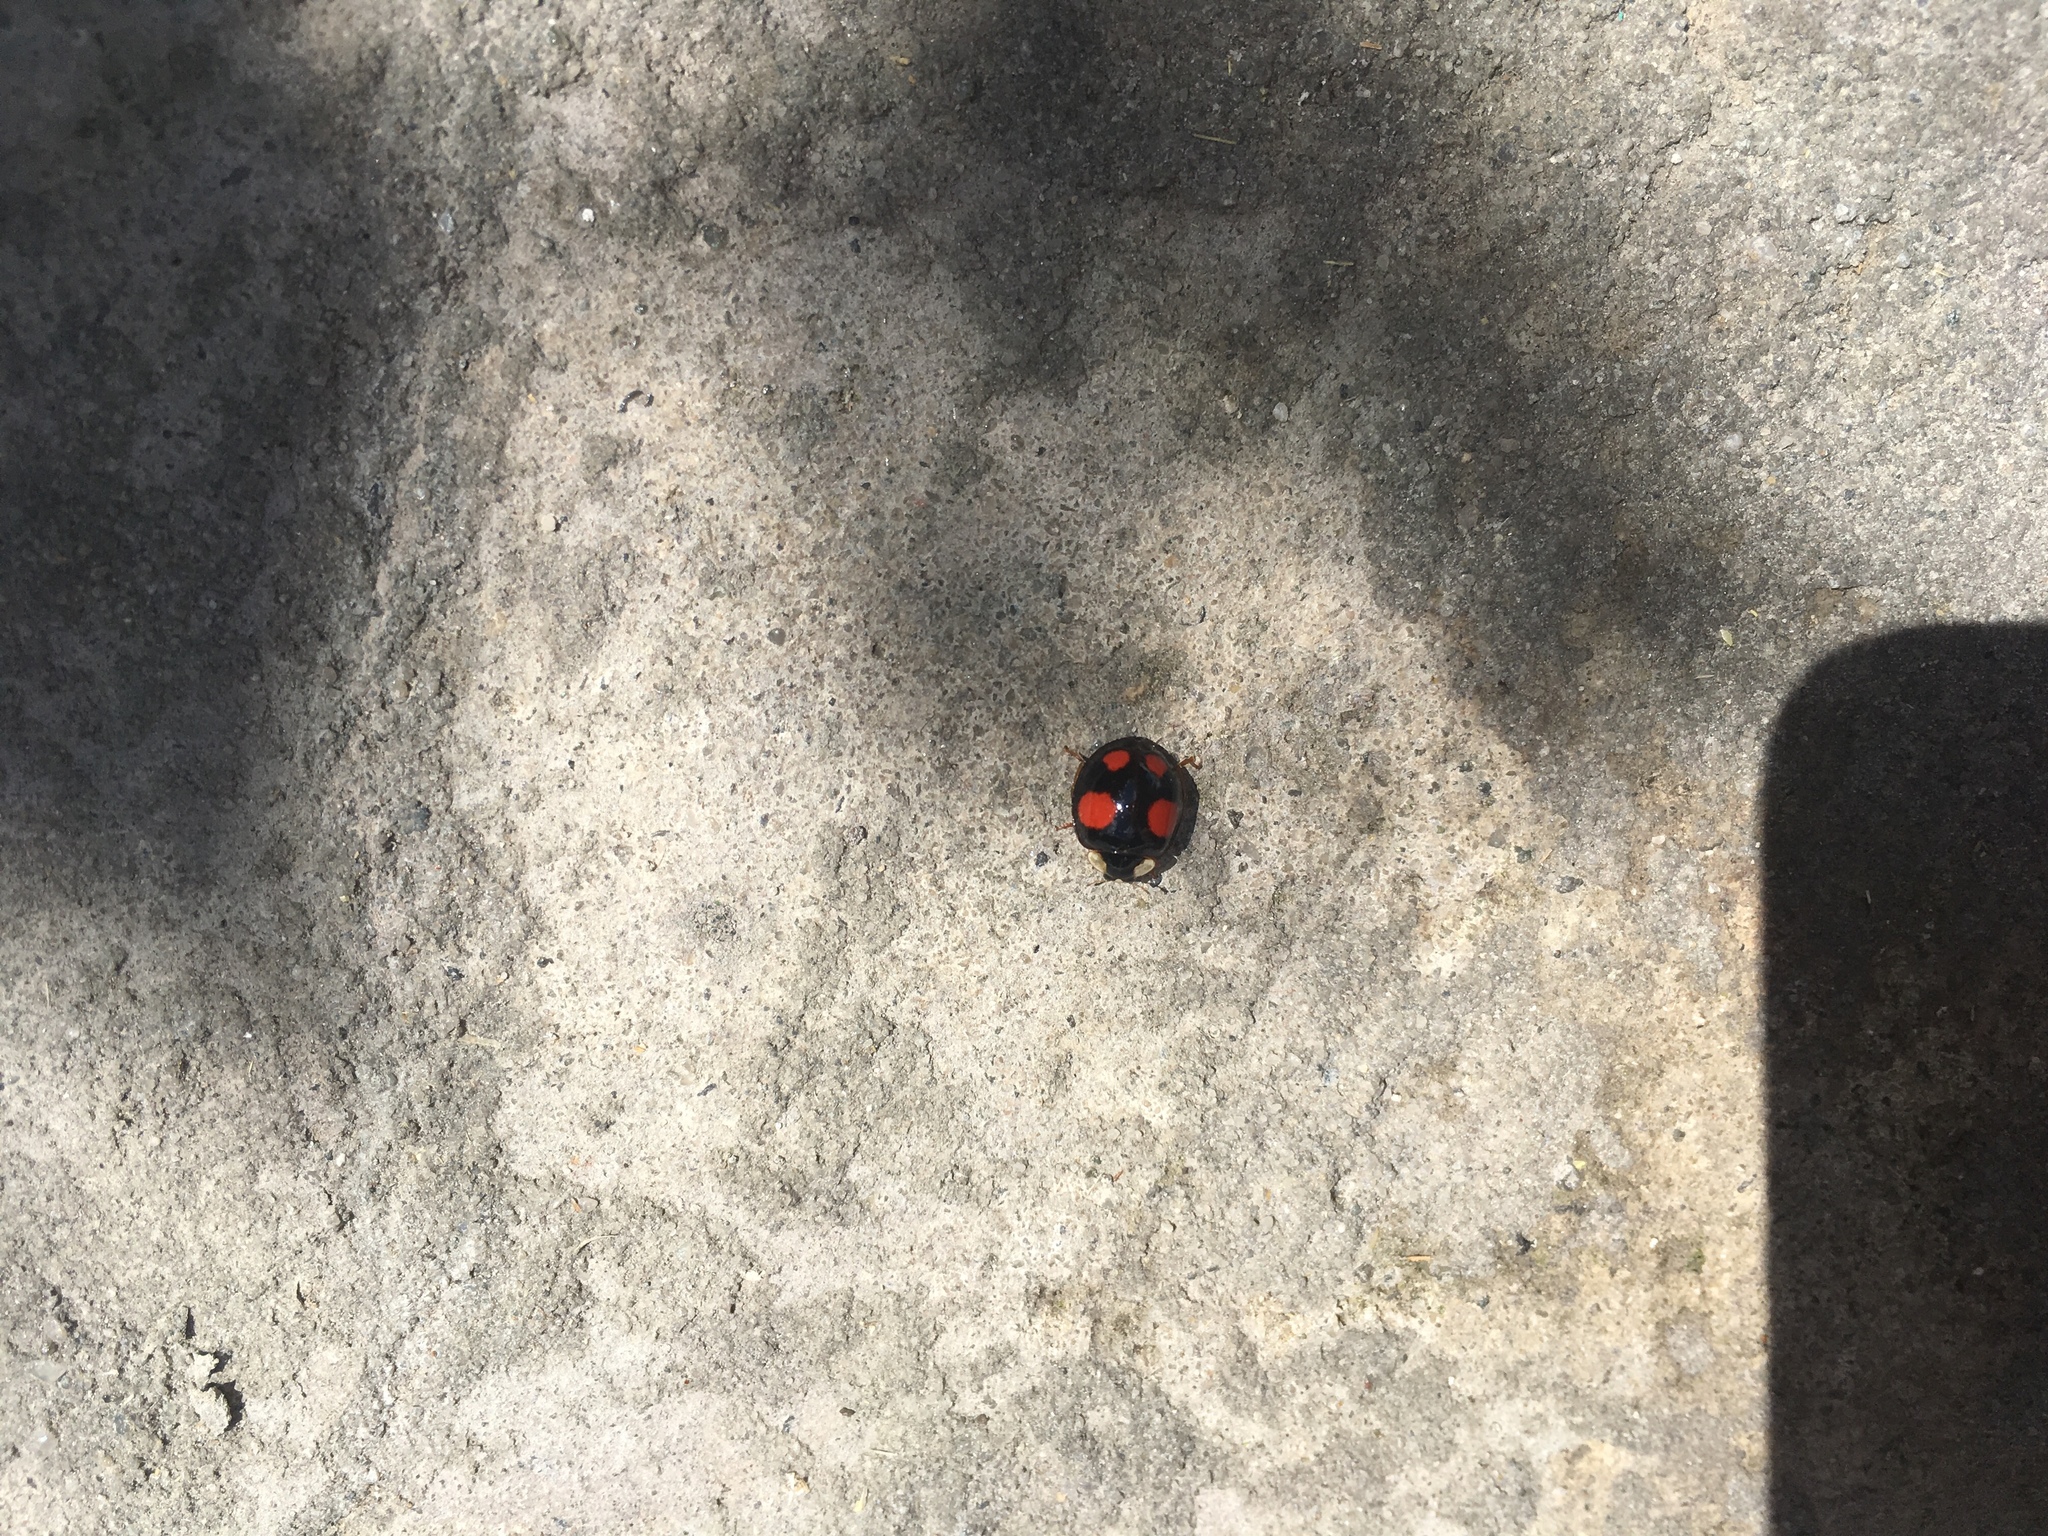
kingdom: Animalia
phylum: Arthropoda
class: Insecta
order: Coleoptera
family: Coccinellidae
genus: Harmonia
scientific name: Harmonia axyridis
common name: Harlequin ladybird
